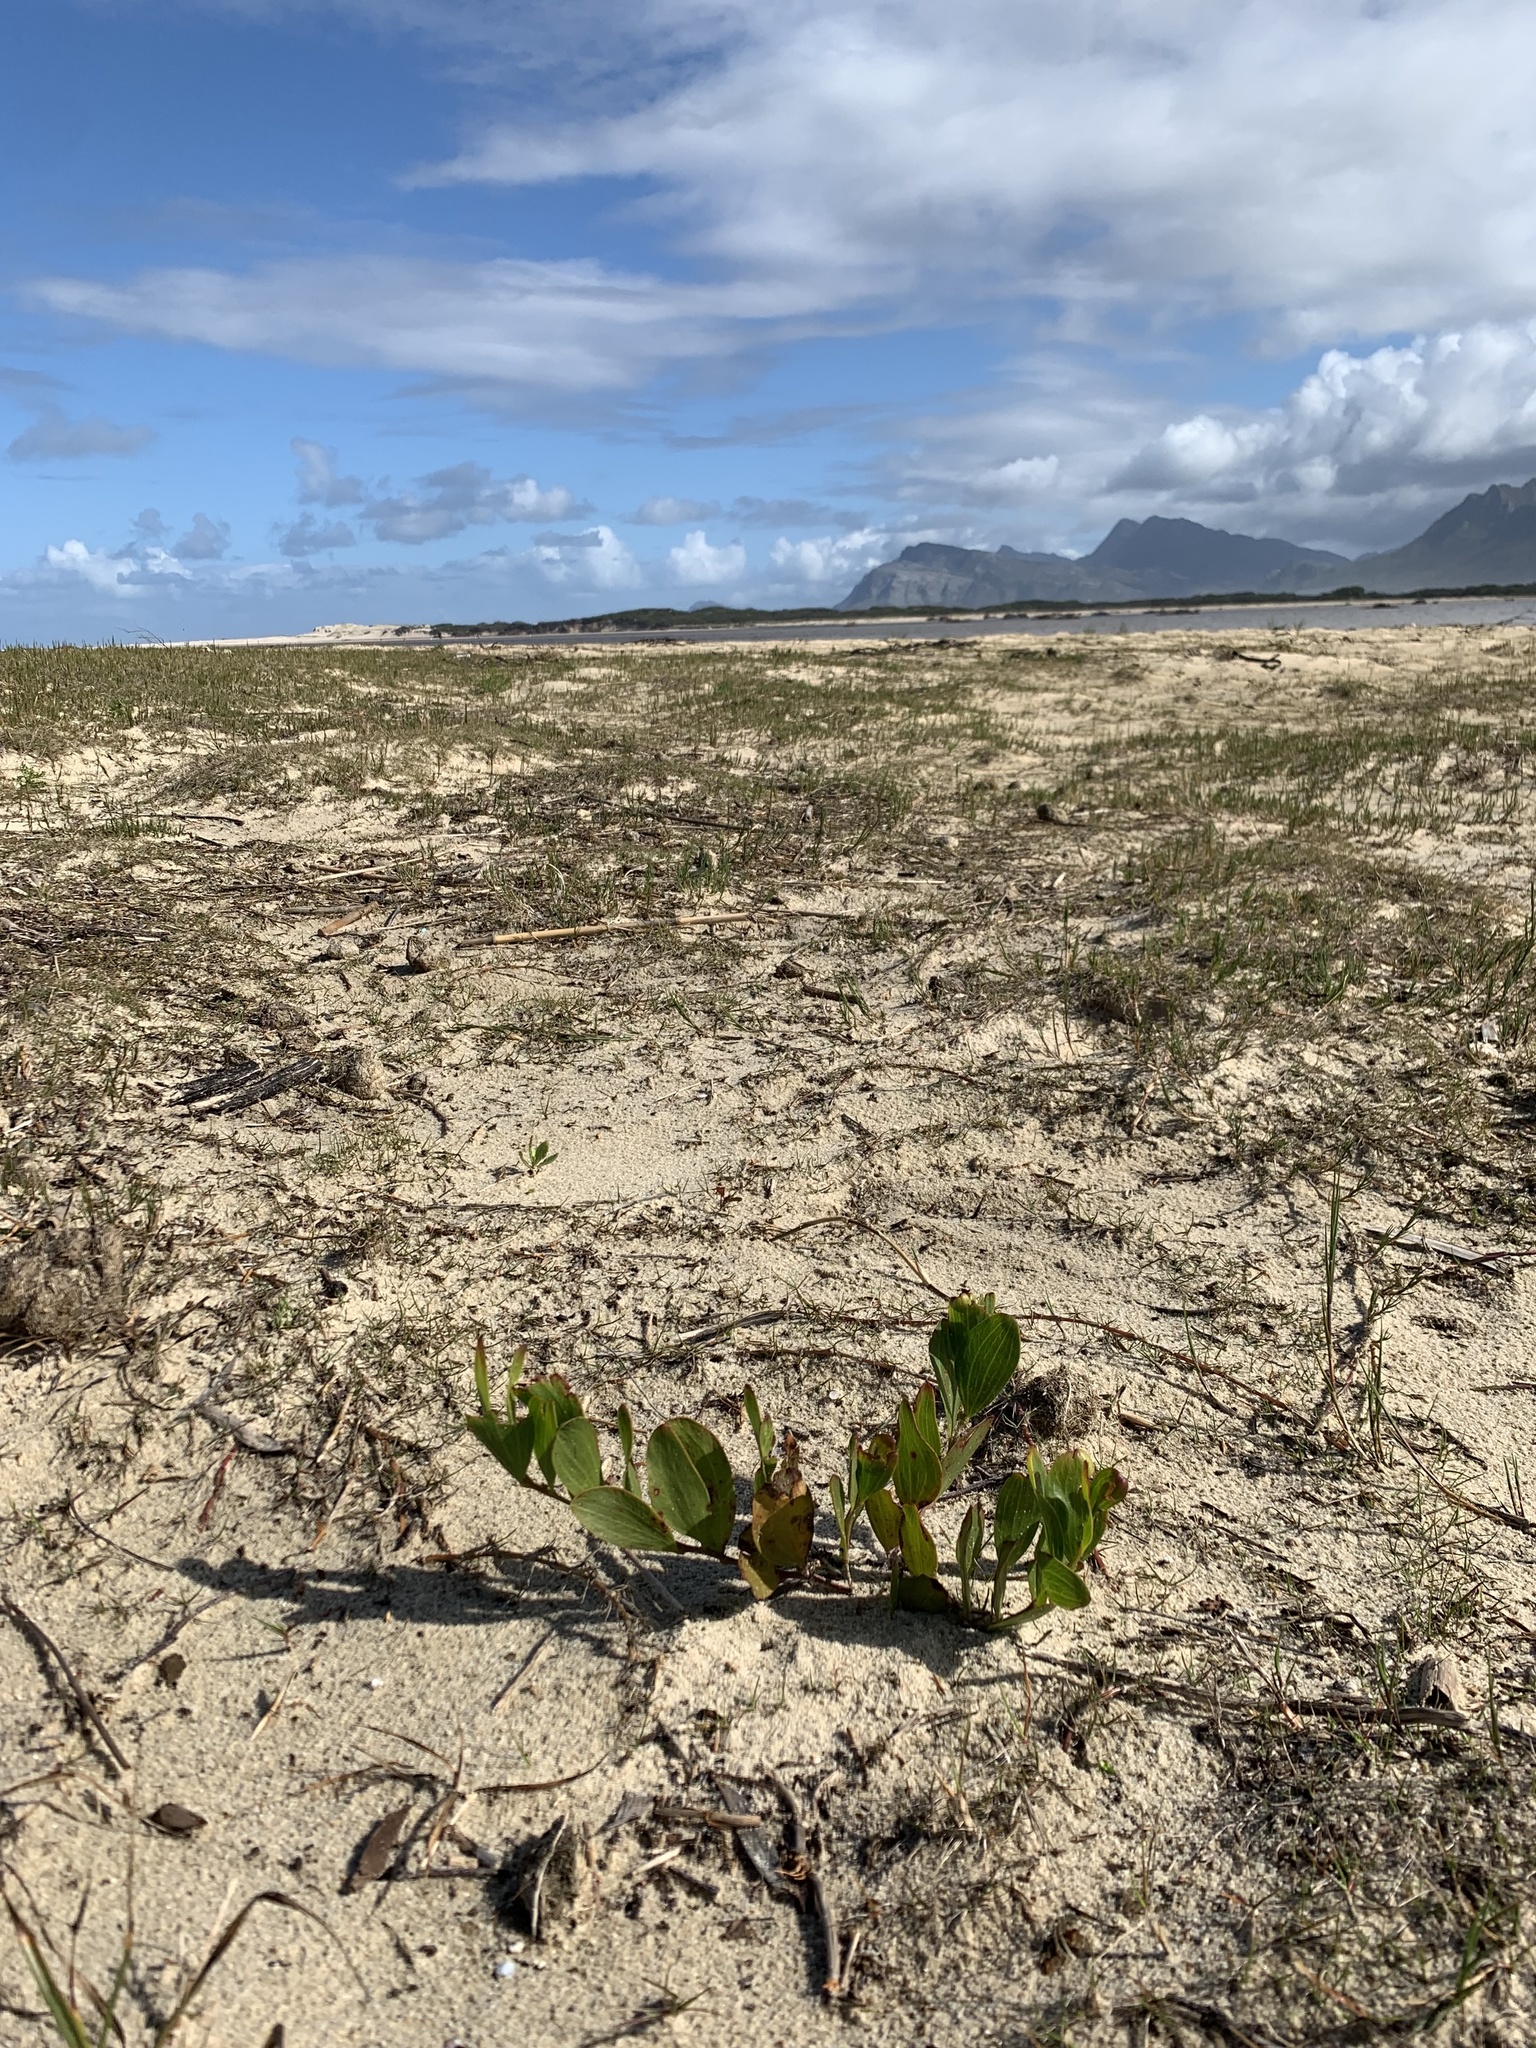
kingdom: Plantae
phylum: Tracheophyta
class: Magnoliopsida
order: Fabales
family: Fabaceae
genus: Acacia
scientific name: Acacia cyclops
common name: Coastal wattle
